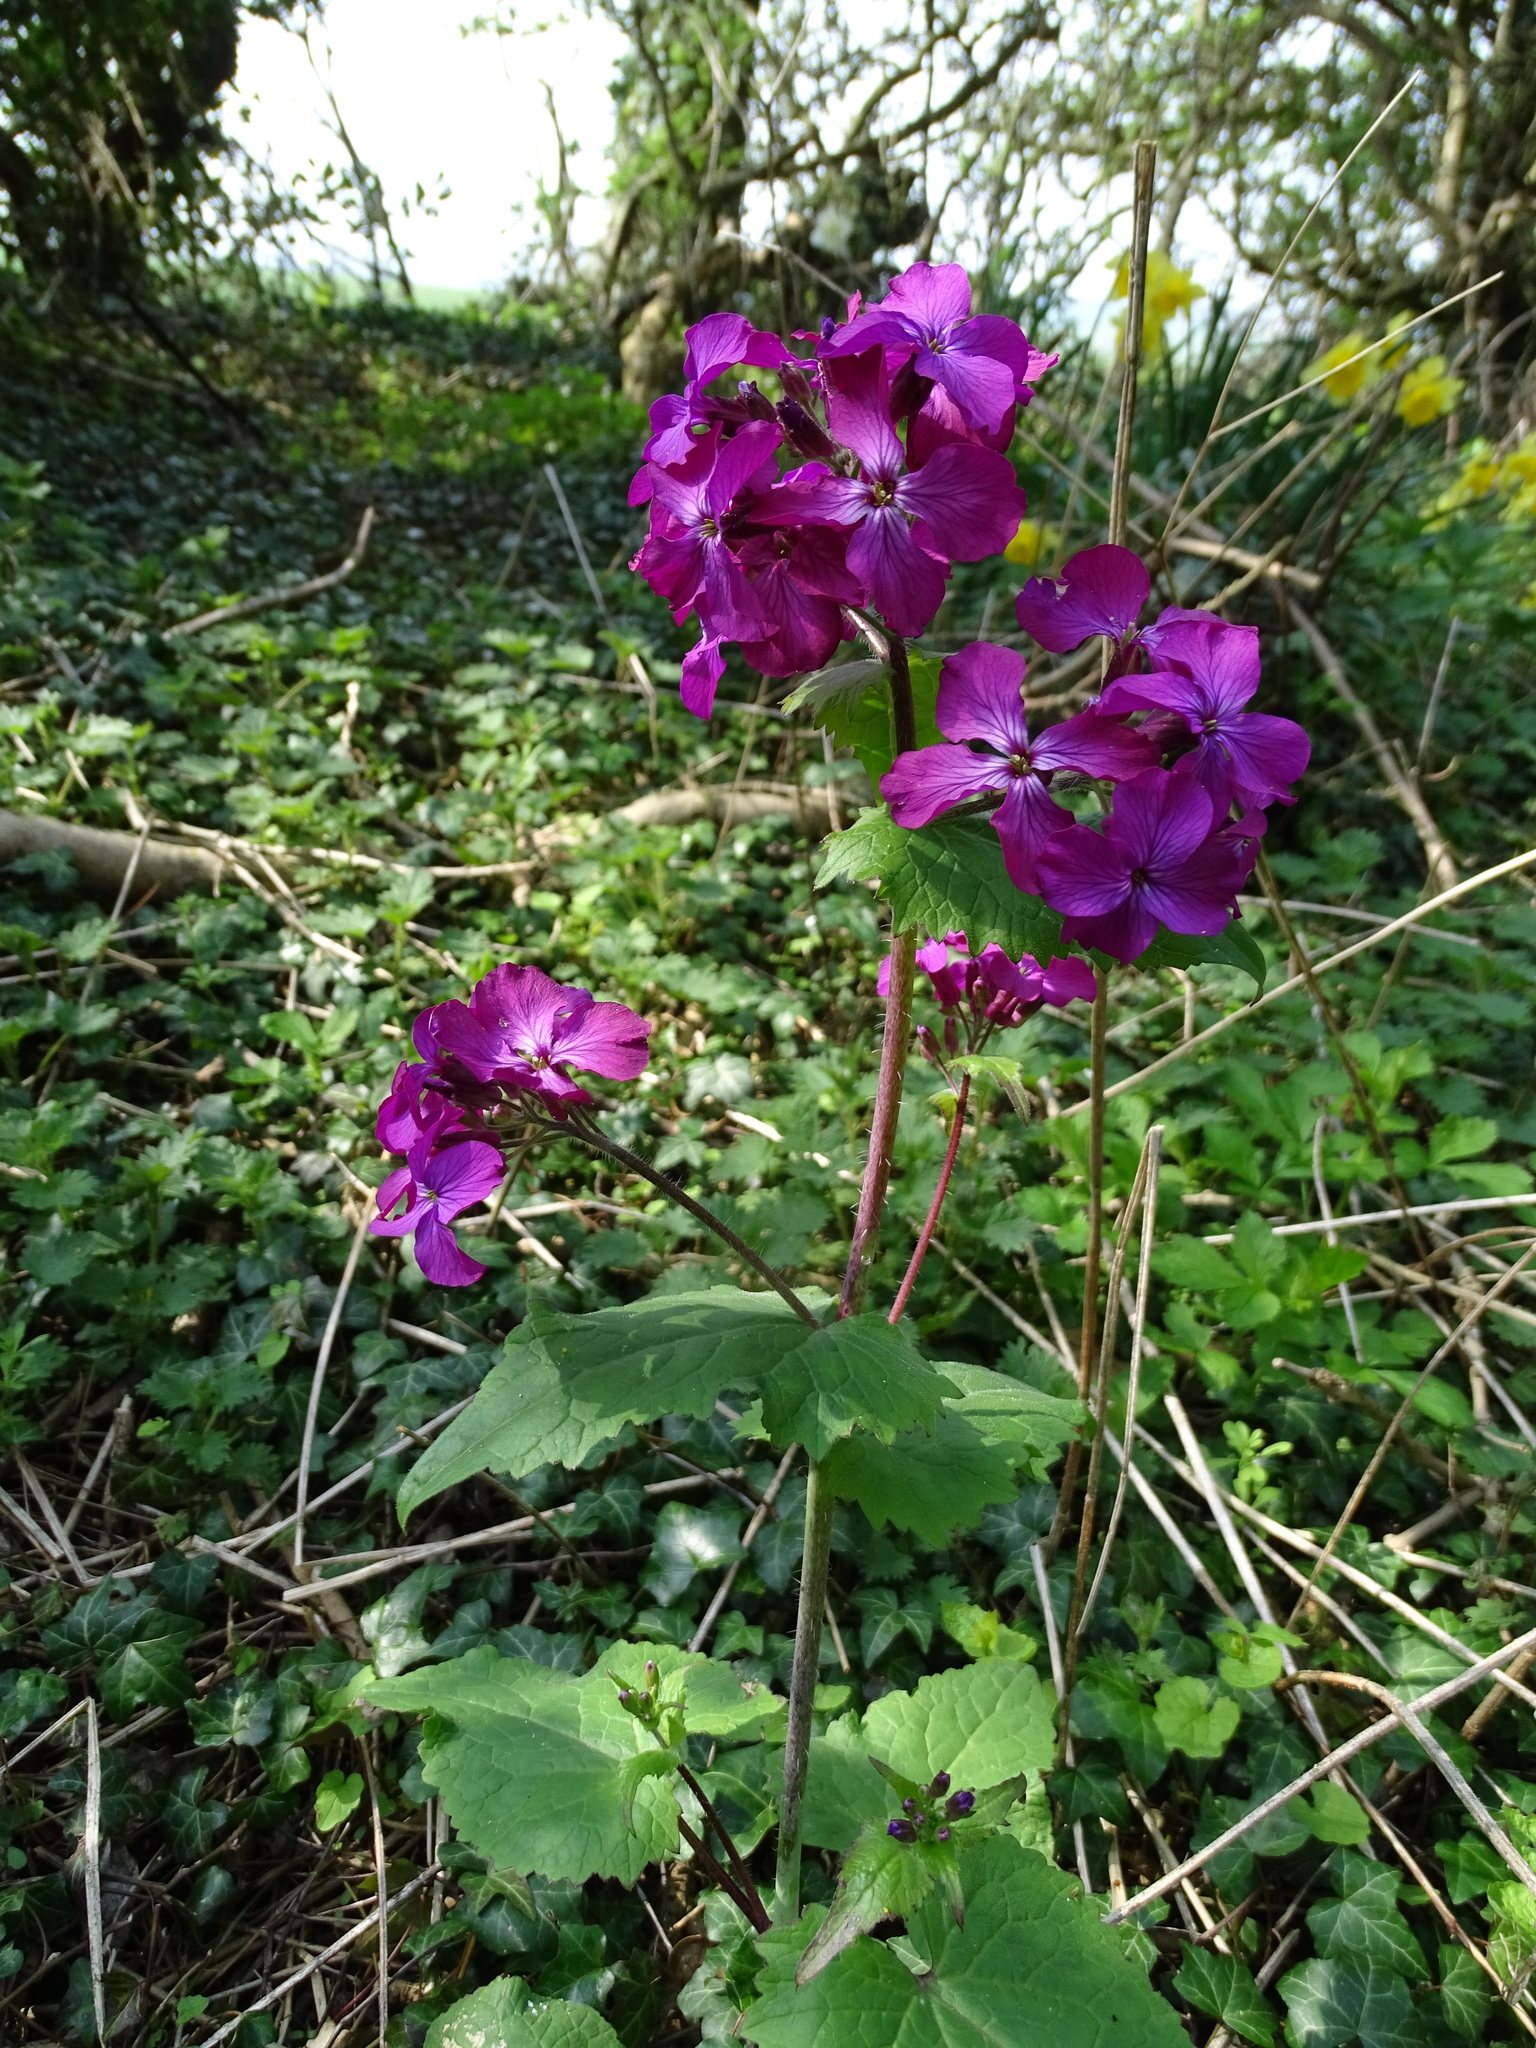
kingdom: Plantae
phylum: Tracheophyta
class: Magnoliopsida
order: Brassicales
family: Brassicaceae
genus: Lunaria
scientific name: Lunaria annua
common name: Honesty
